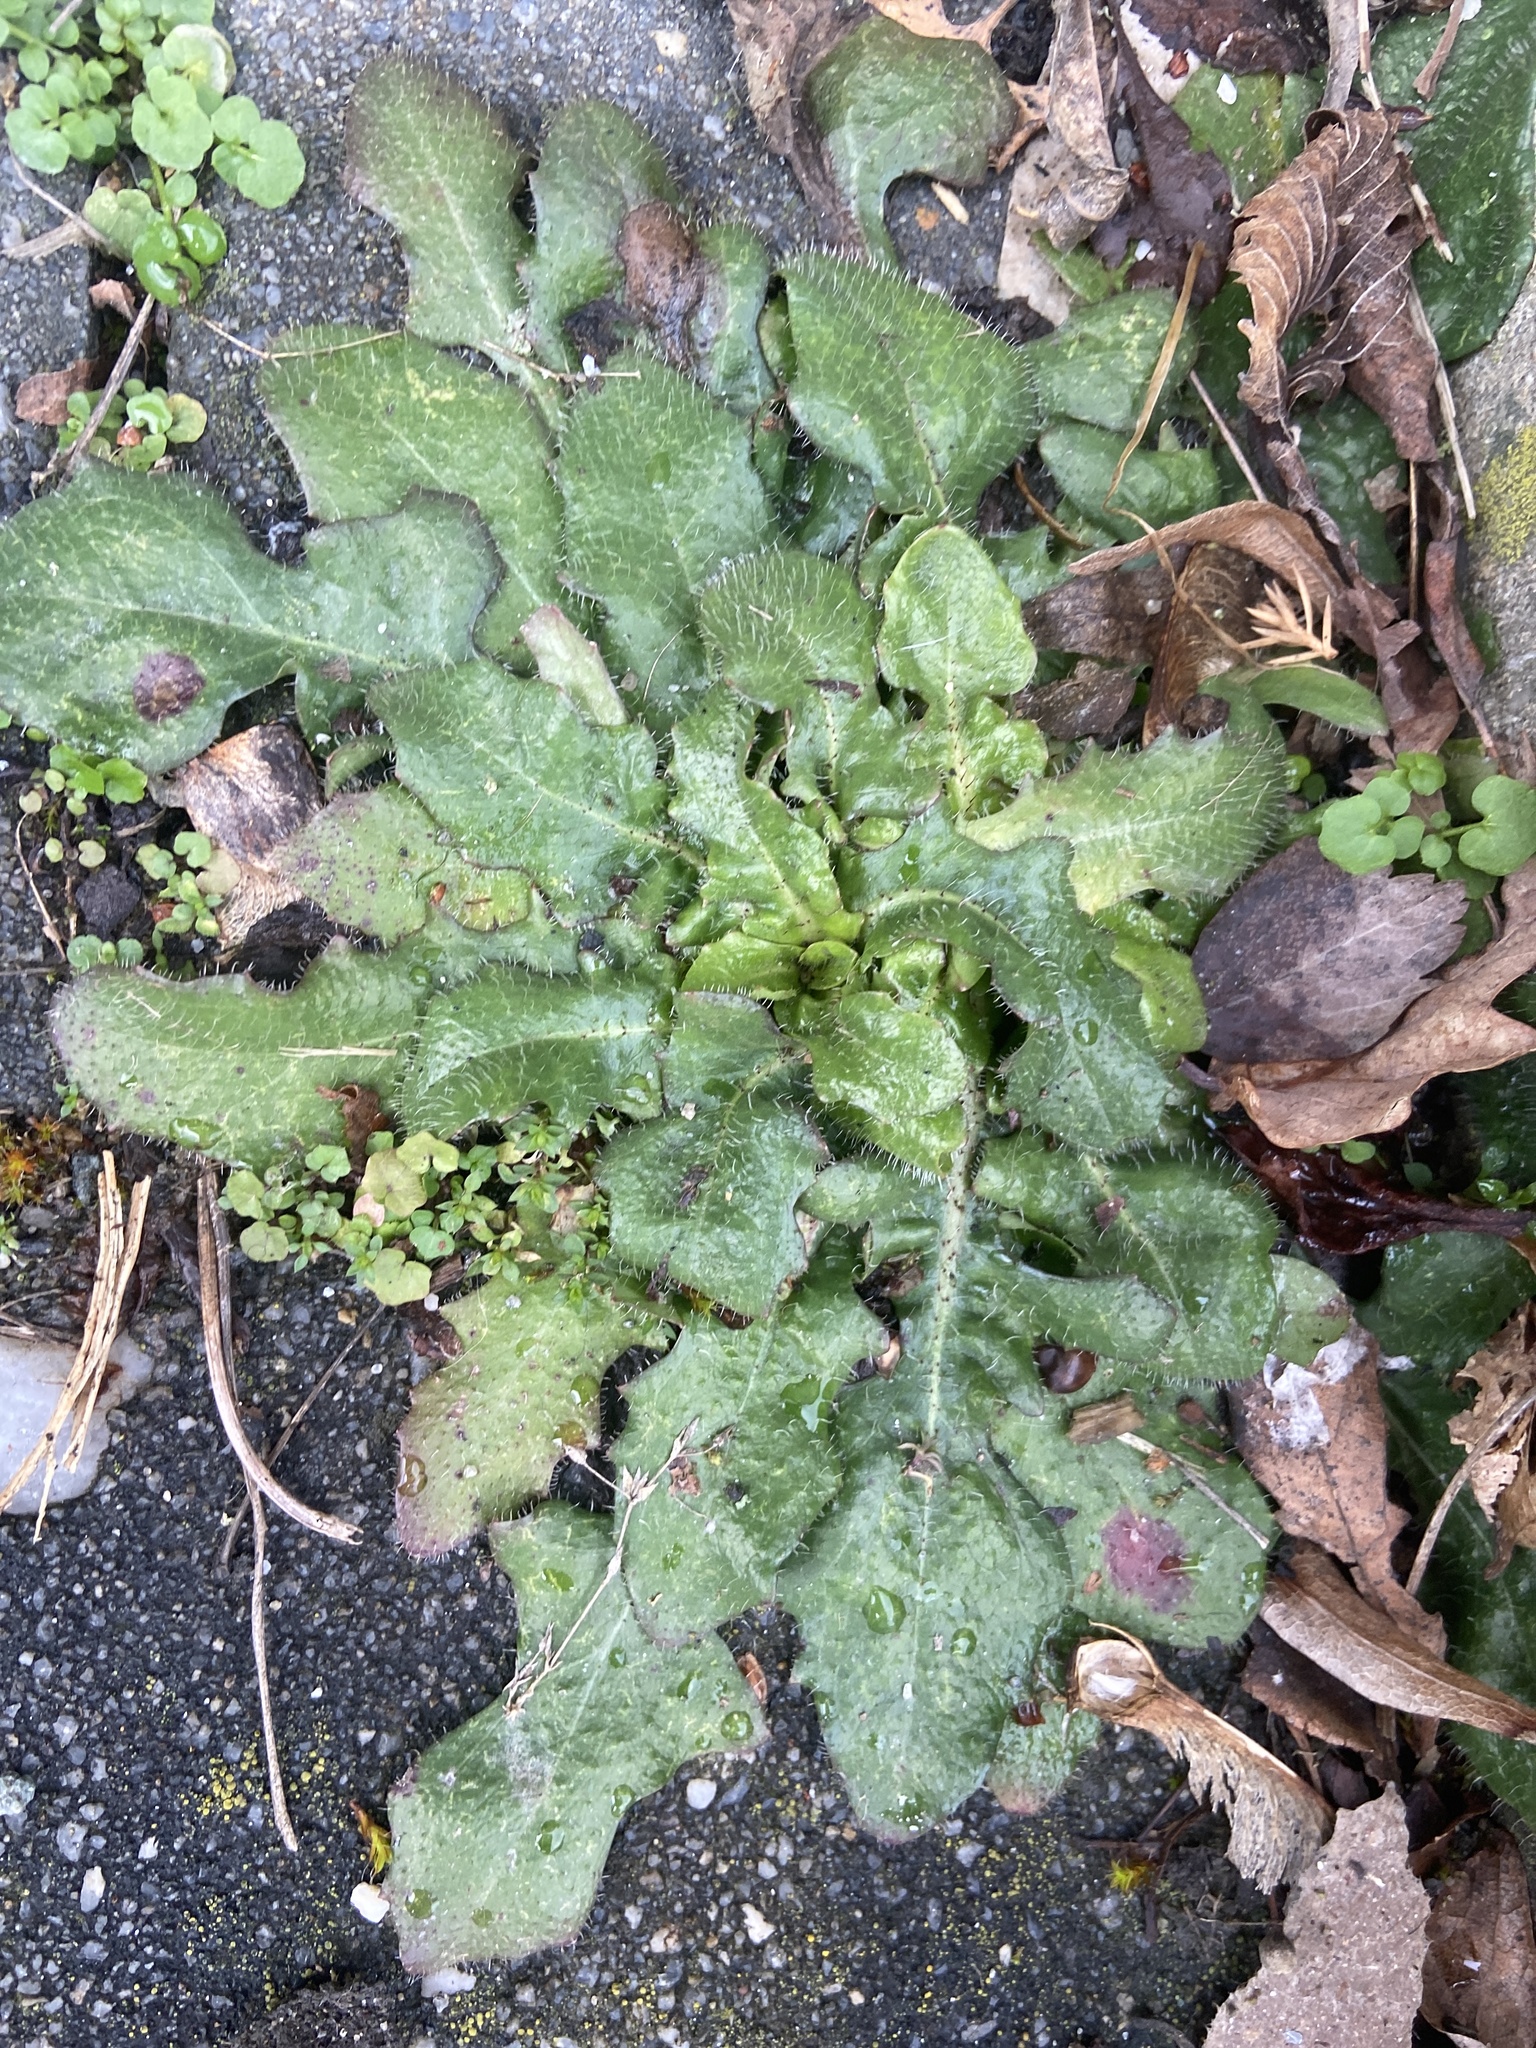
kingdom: Plantae
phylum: Tracheophyta
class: Magnoliopsida
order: Asterales
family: Asteraceae
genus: Hypochaeris
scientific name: Hypochaeris radicata
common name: Flatweed
